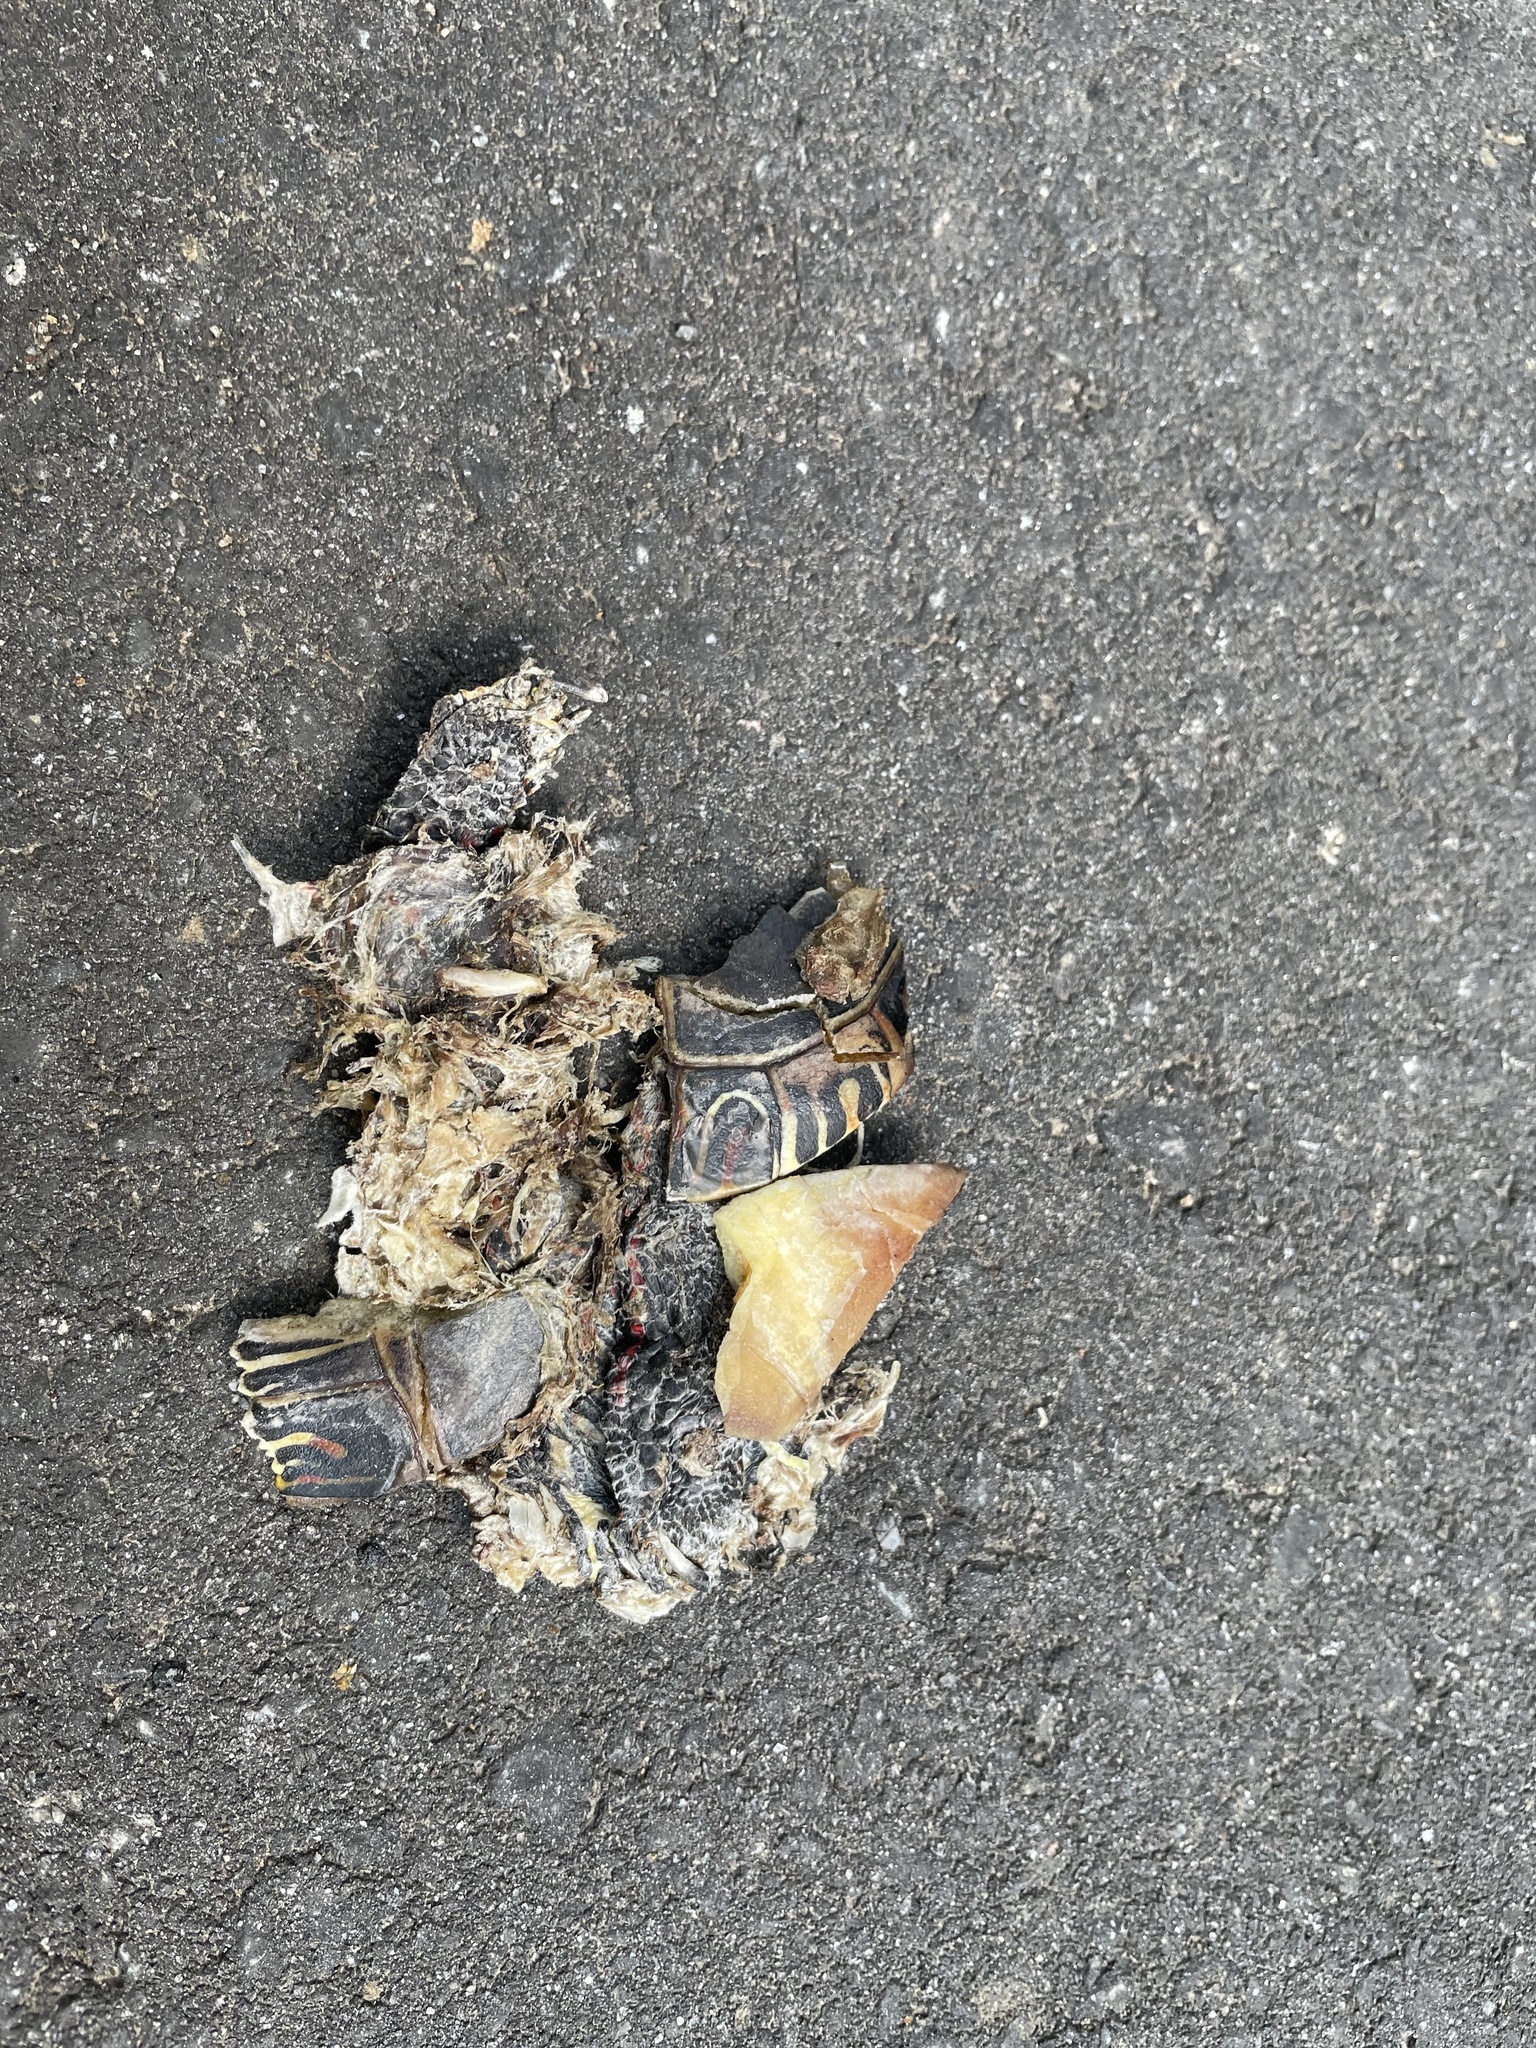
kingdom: Animalia
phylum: Chordata
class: Testudines
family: Emydidae
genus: Chrysemys
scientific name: Chrysemys picta
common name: Painted turtle
